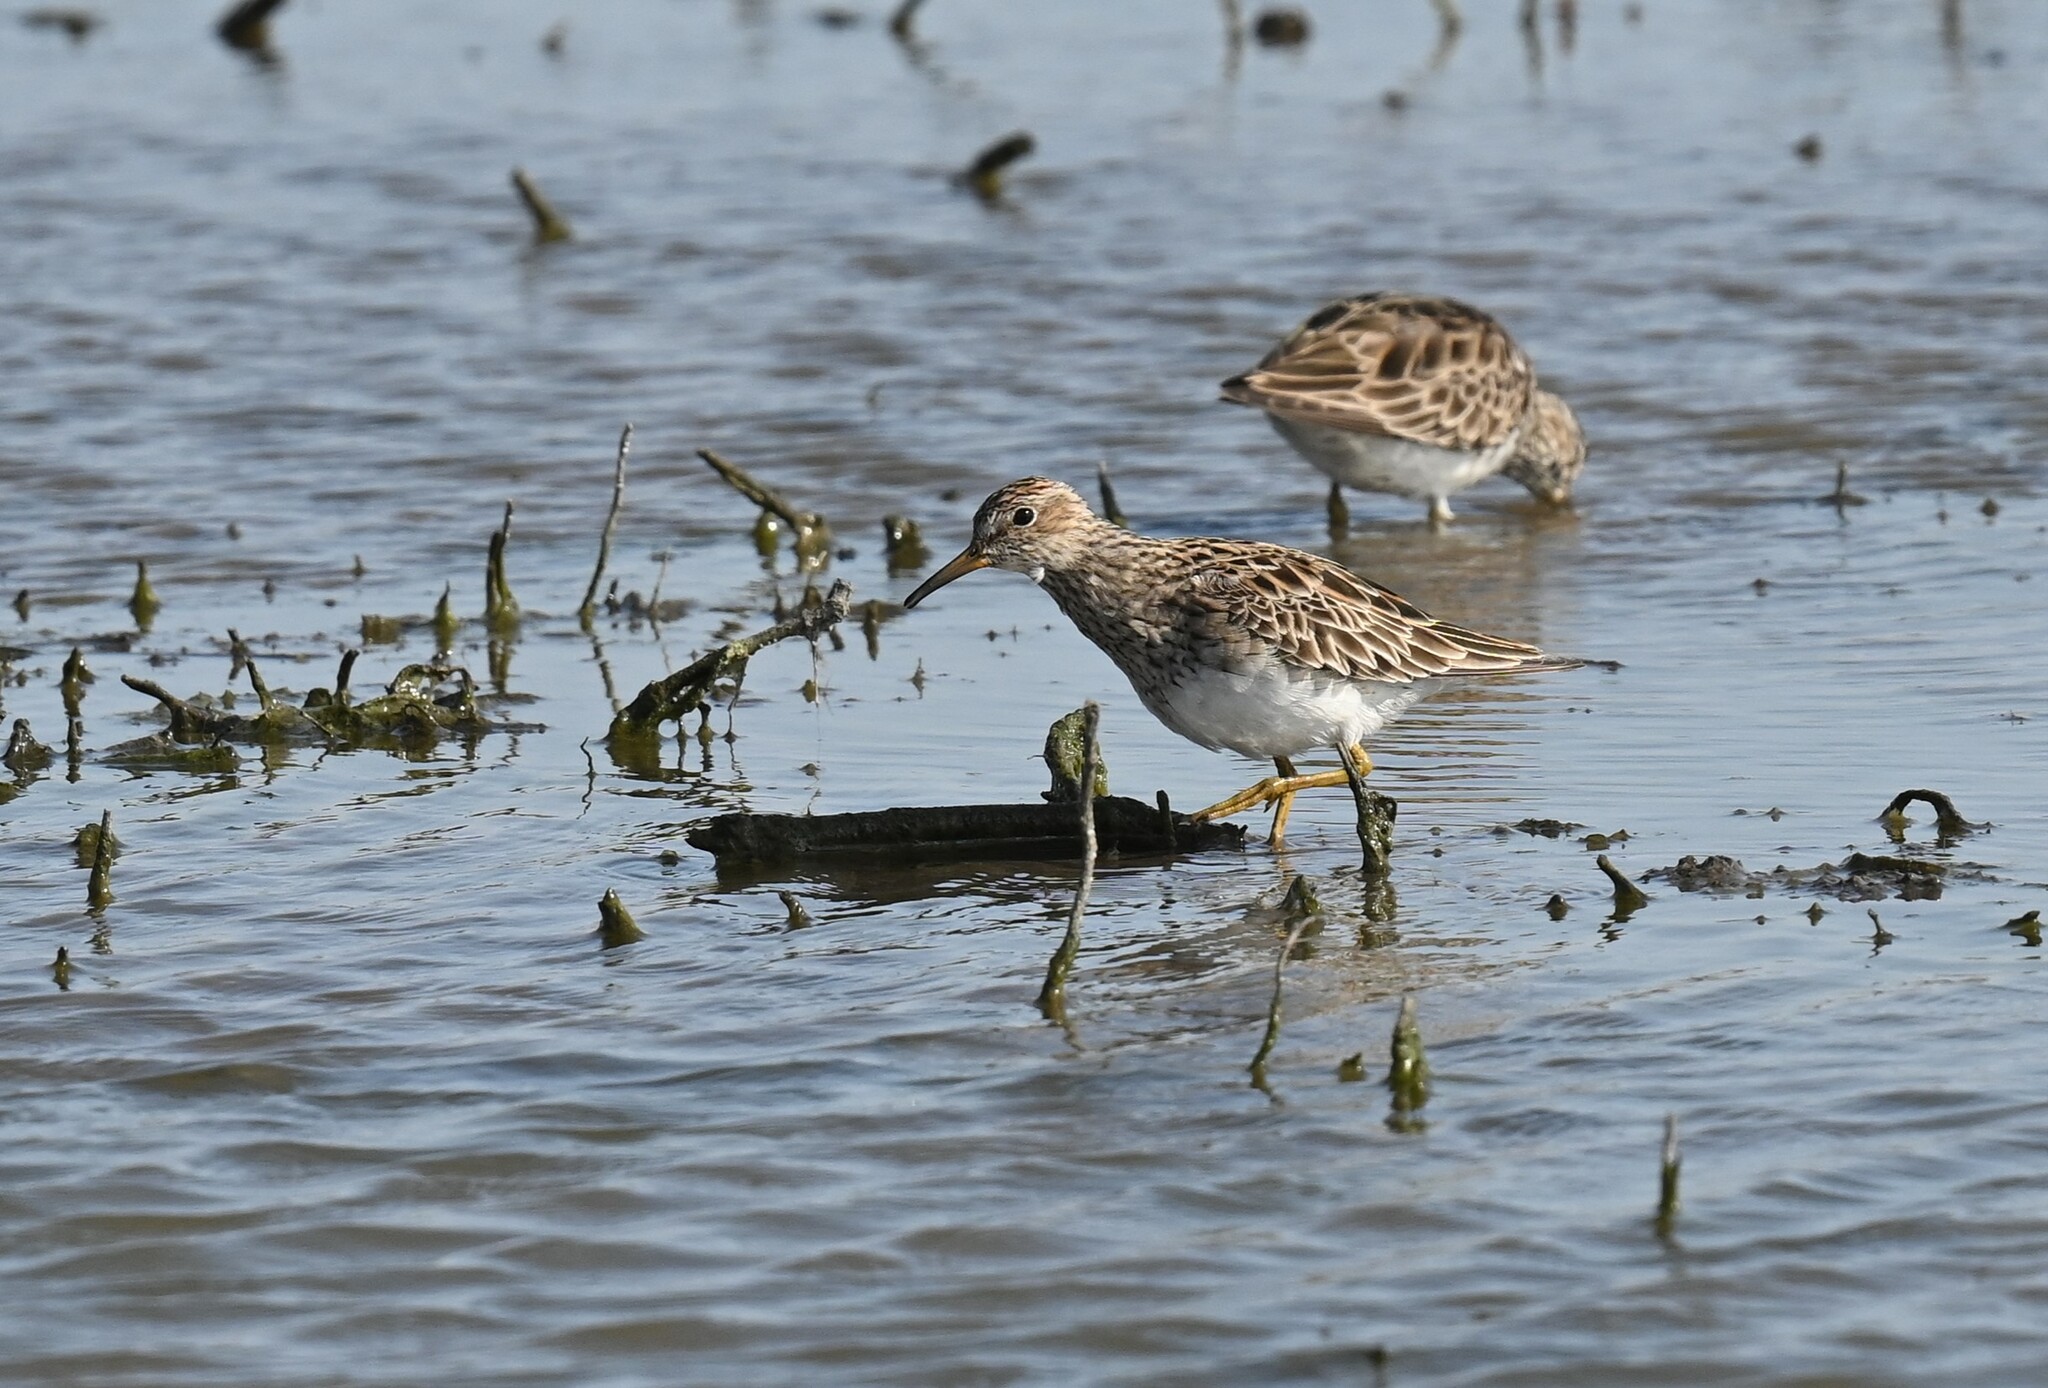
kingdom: Animalia
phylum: Chordata
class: Aves
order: Charadriiformes
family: Scolopacidae
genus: Calidris
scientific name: Calidris melanotos
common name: Pectoral sandpiper
